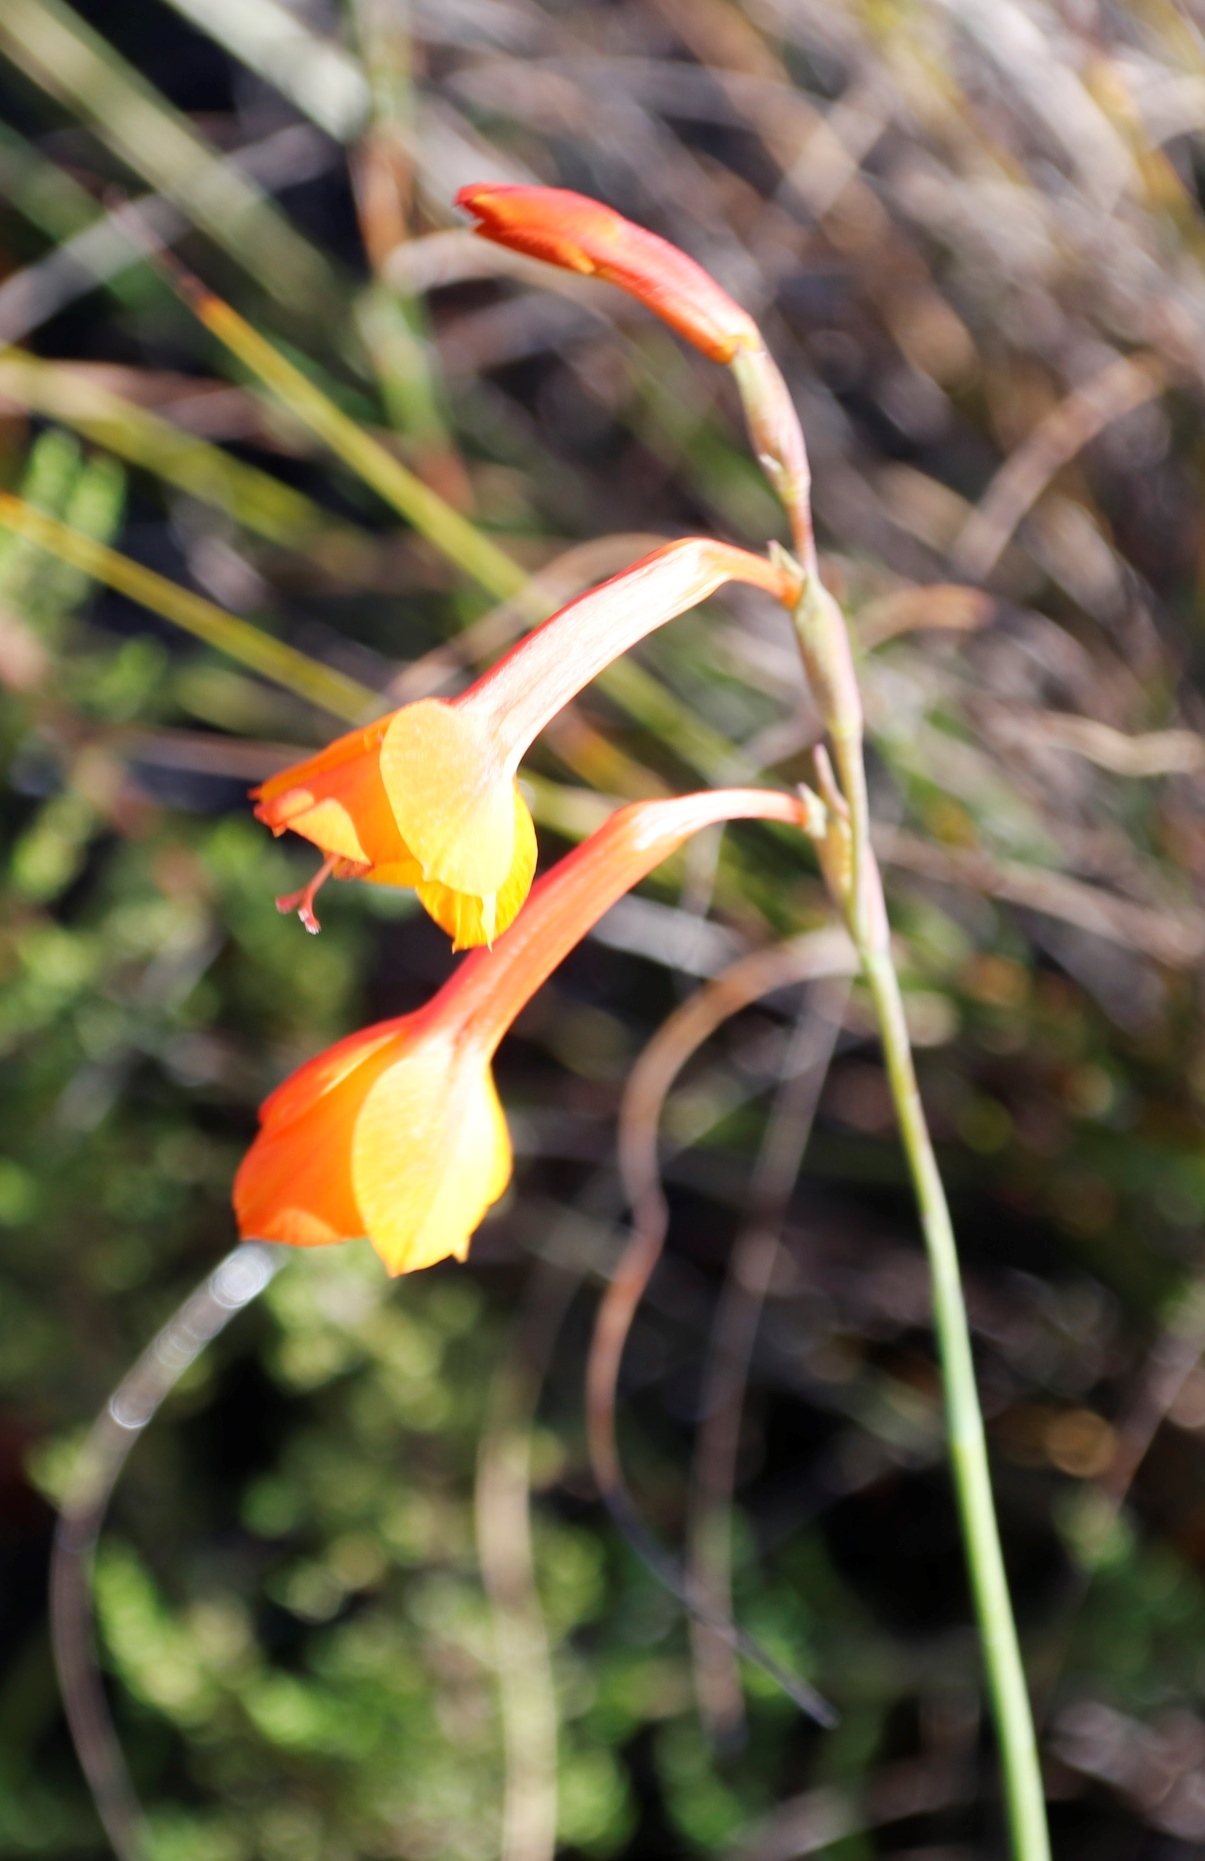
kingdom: Plantae
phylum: Tracheophyta
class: Liliopsida
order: Asparagales
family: Iridaceae
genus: Gladiolus
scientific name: Gladiolus merianellus
